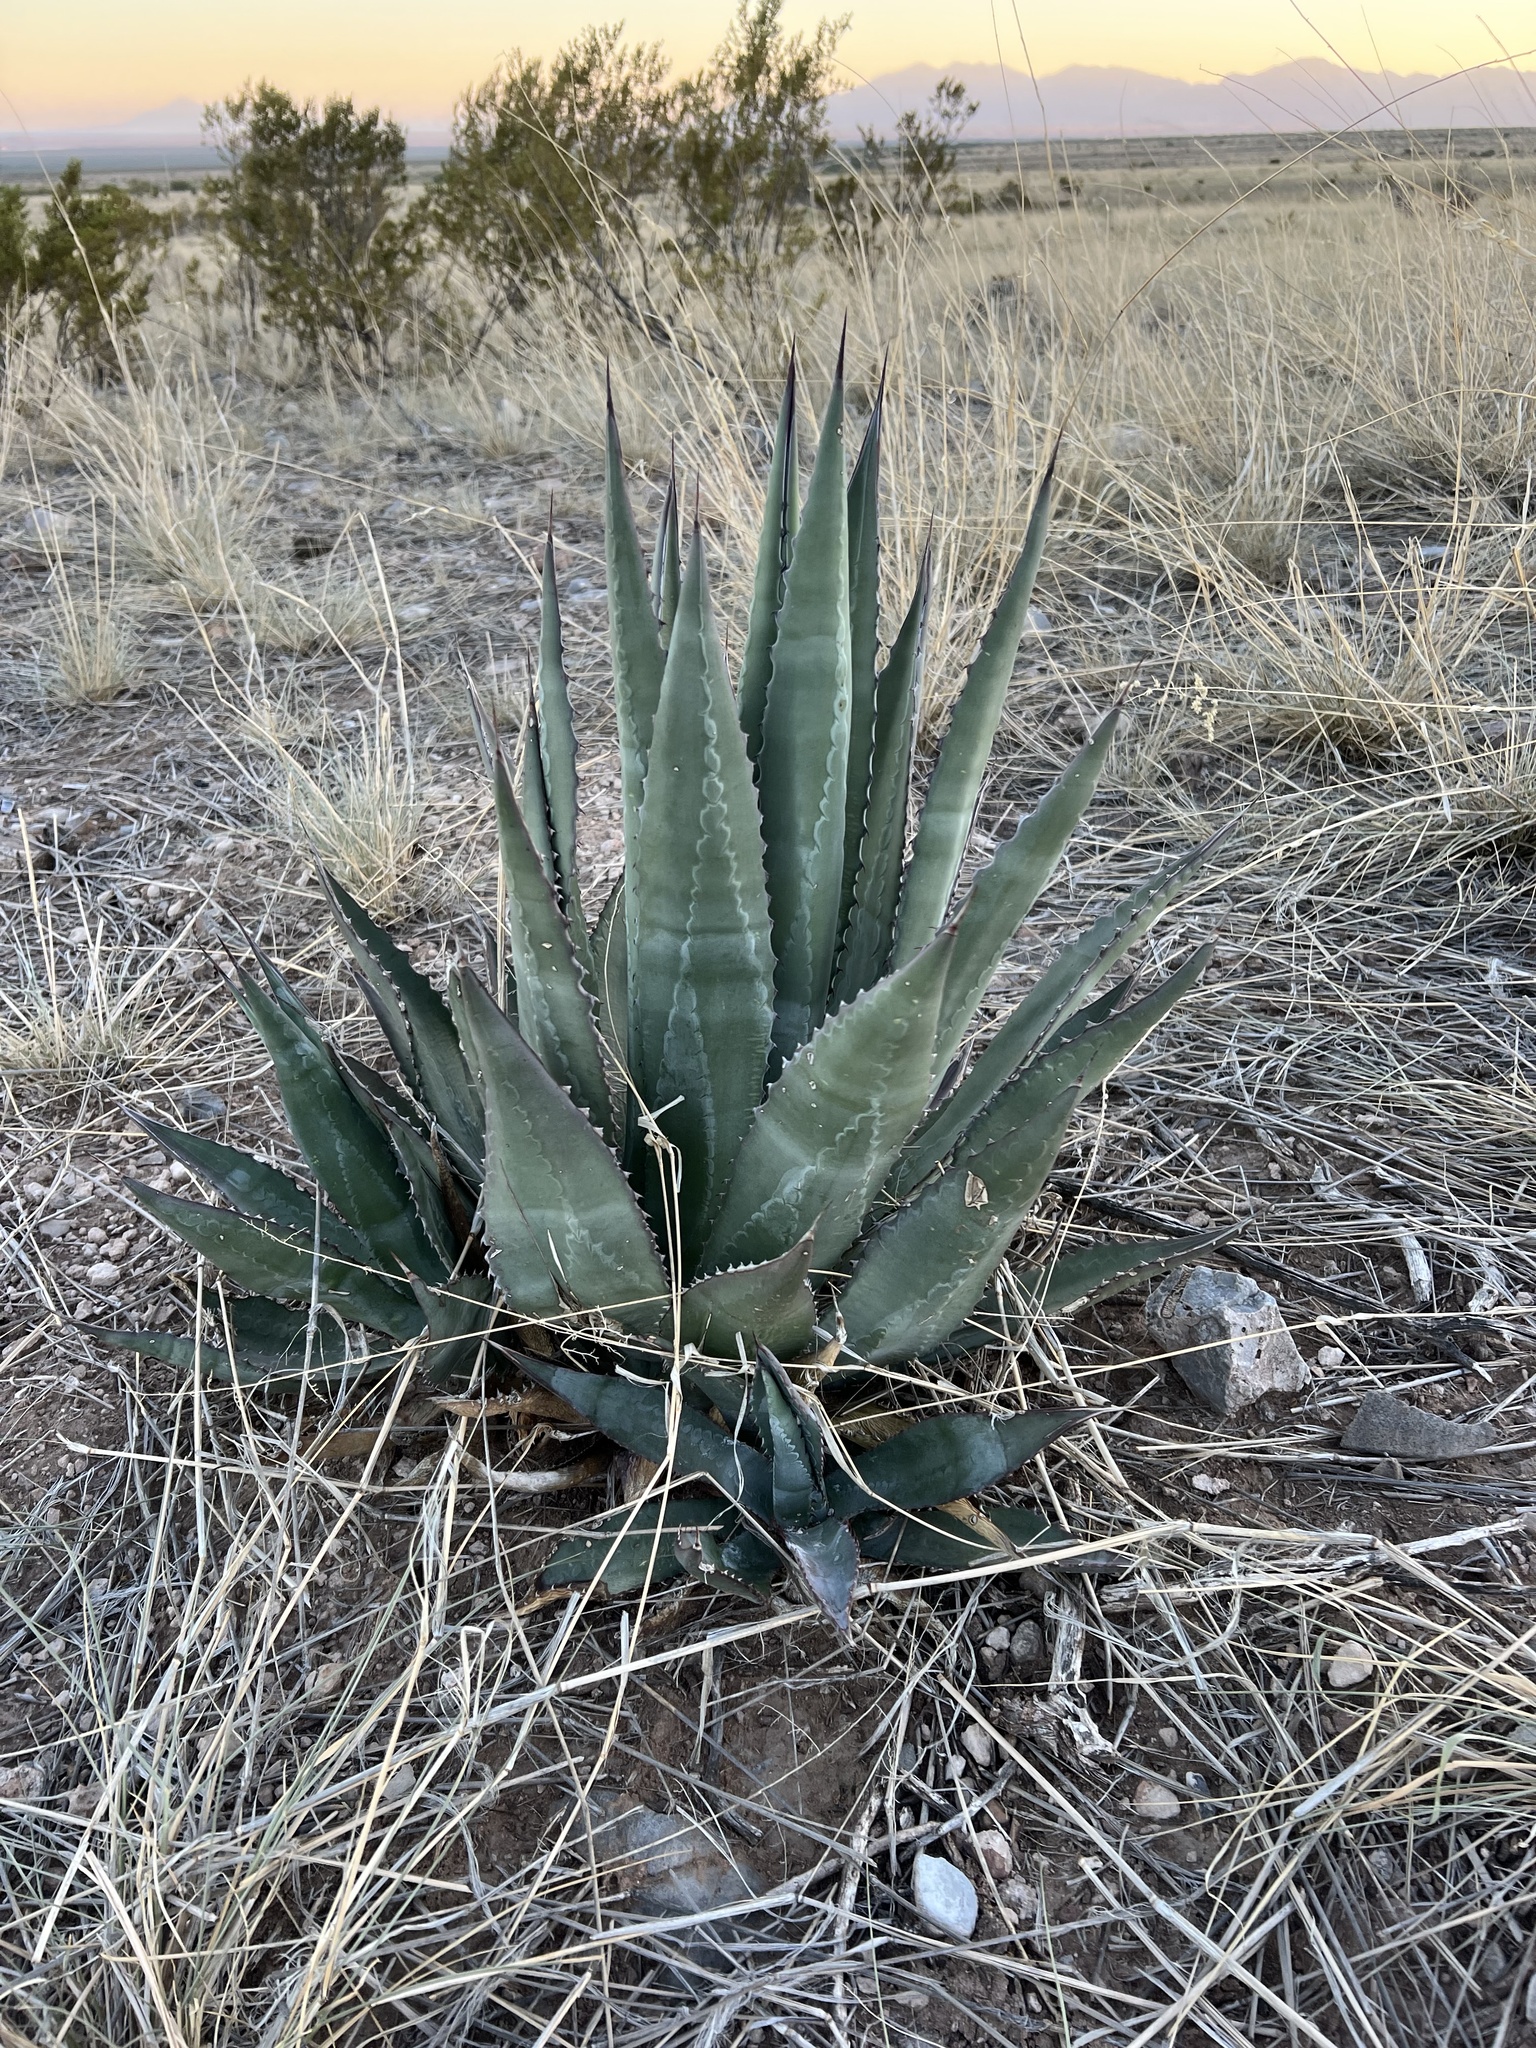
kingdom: Plantae
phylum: Tracheophyta
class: Liliopsida
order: Asparagales
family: Asparagaceae
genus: Agave
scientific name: Agave palmeri
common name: Palmer agave
